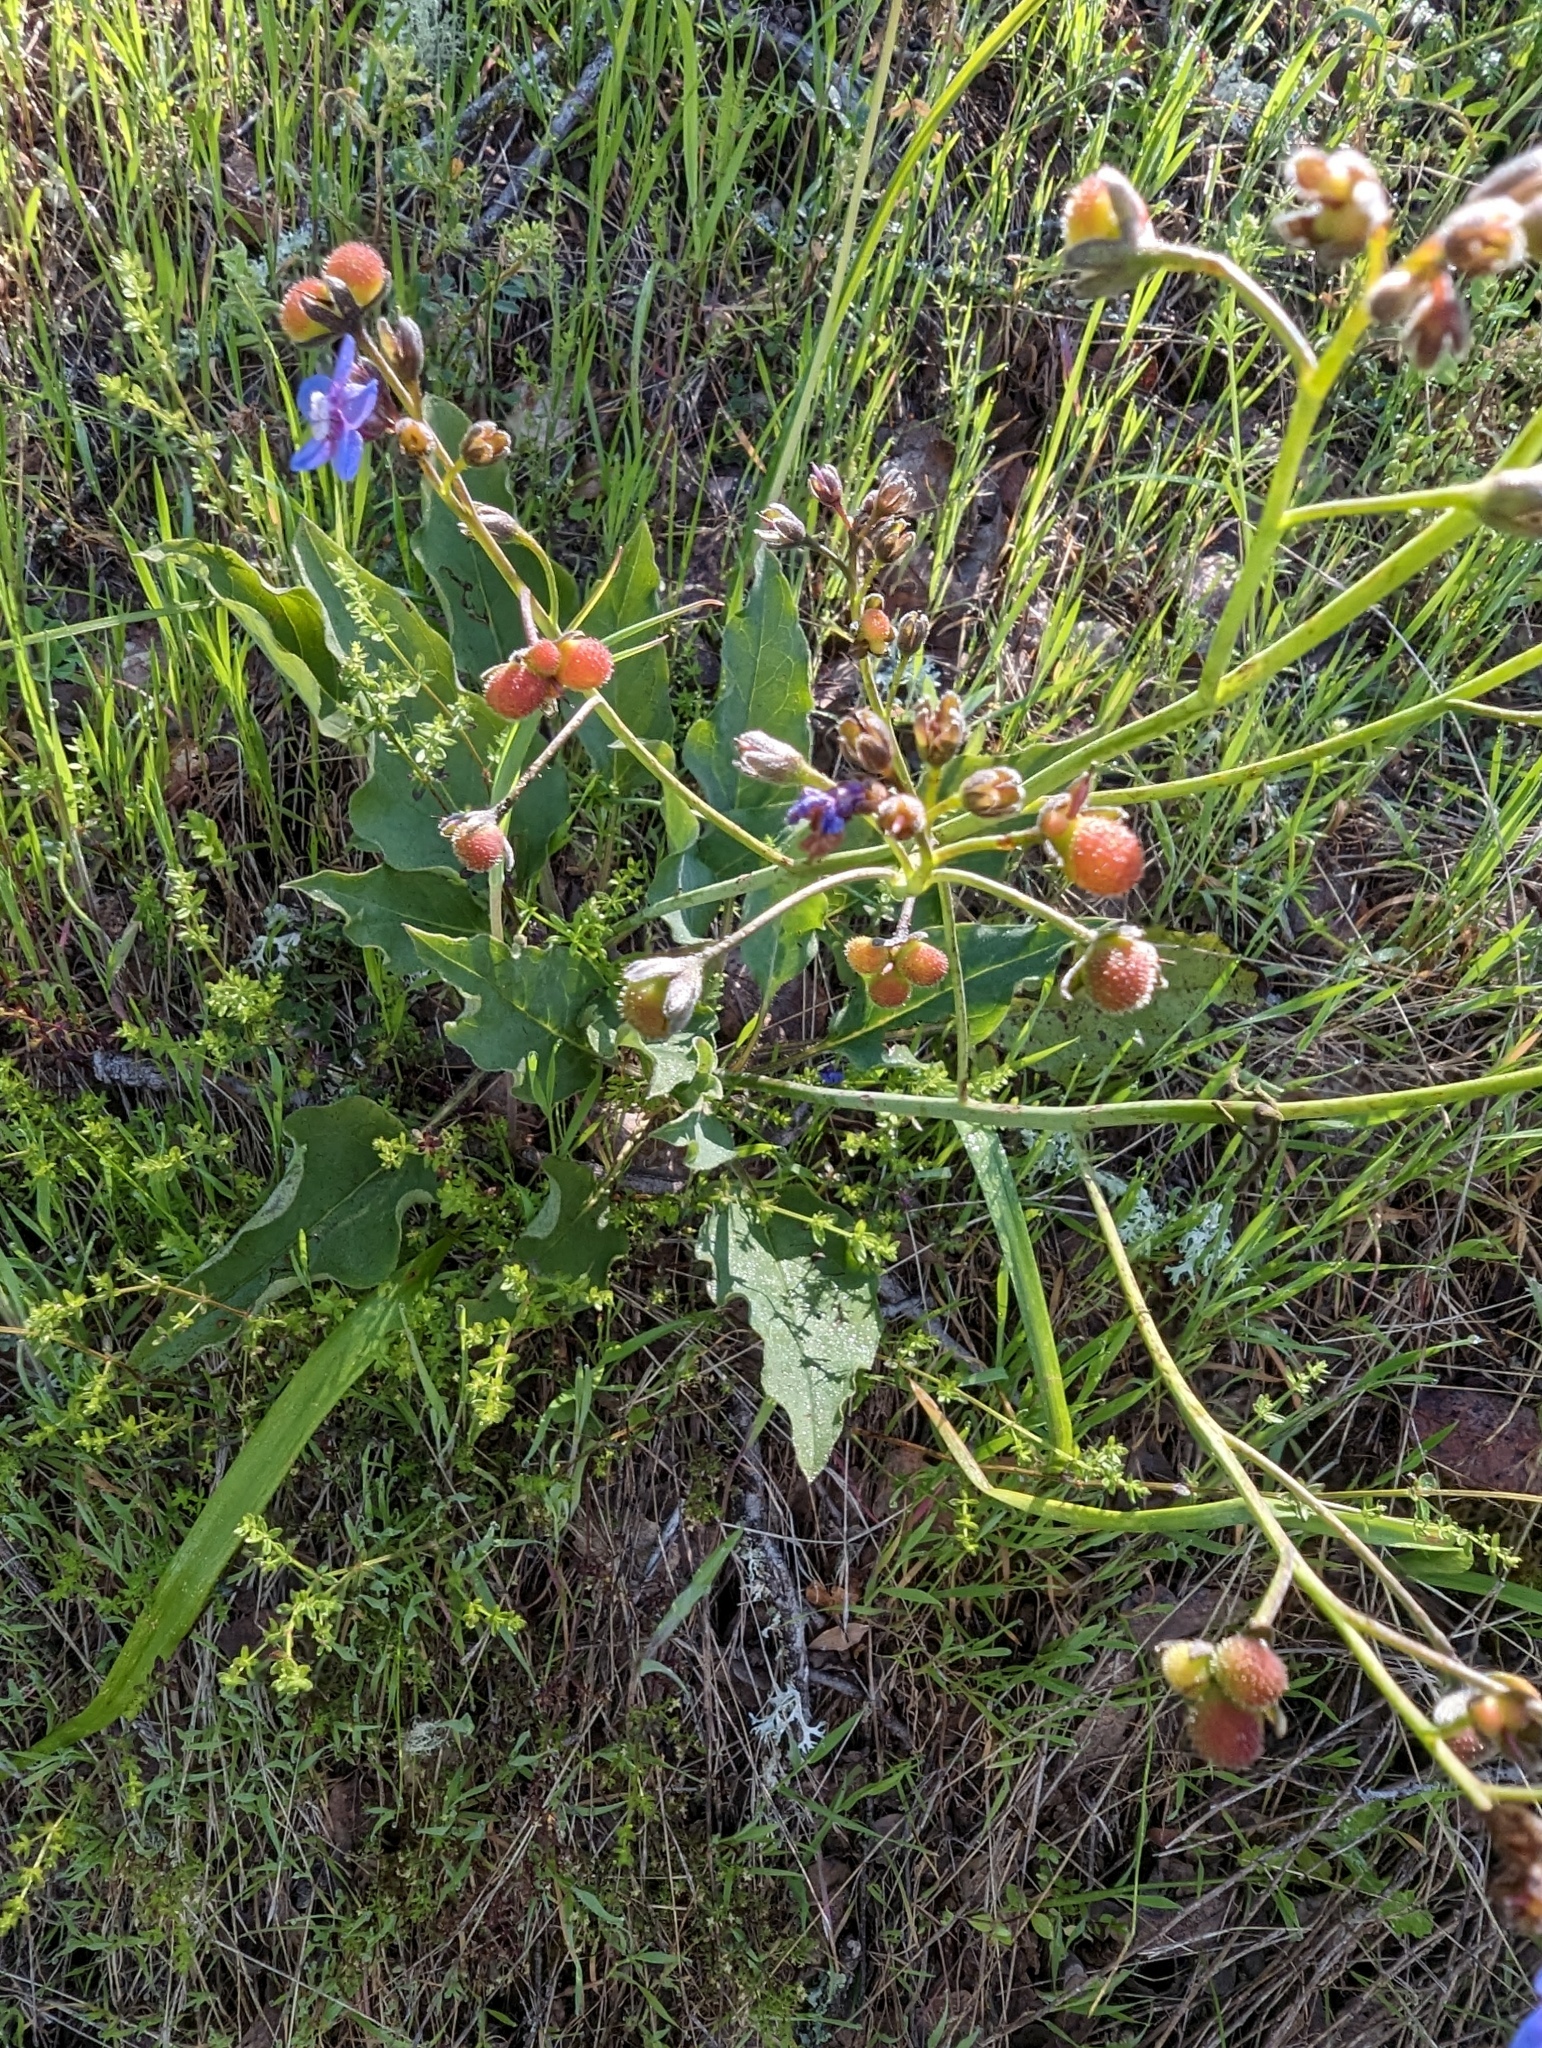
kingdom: Plantae
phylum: Tracheophyta
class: Magnoliopsida
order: Boraginales
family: Boraginaceae
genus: Adelinia
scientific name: Adelinia grande
